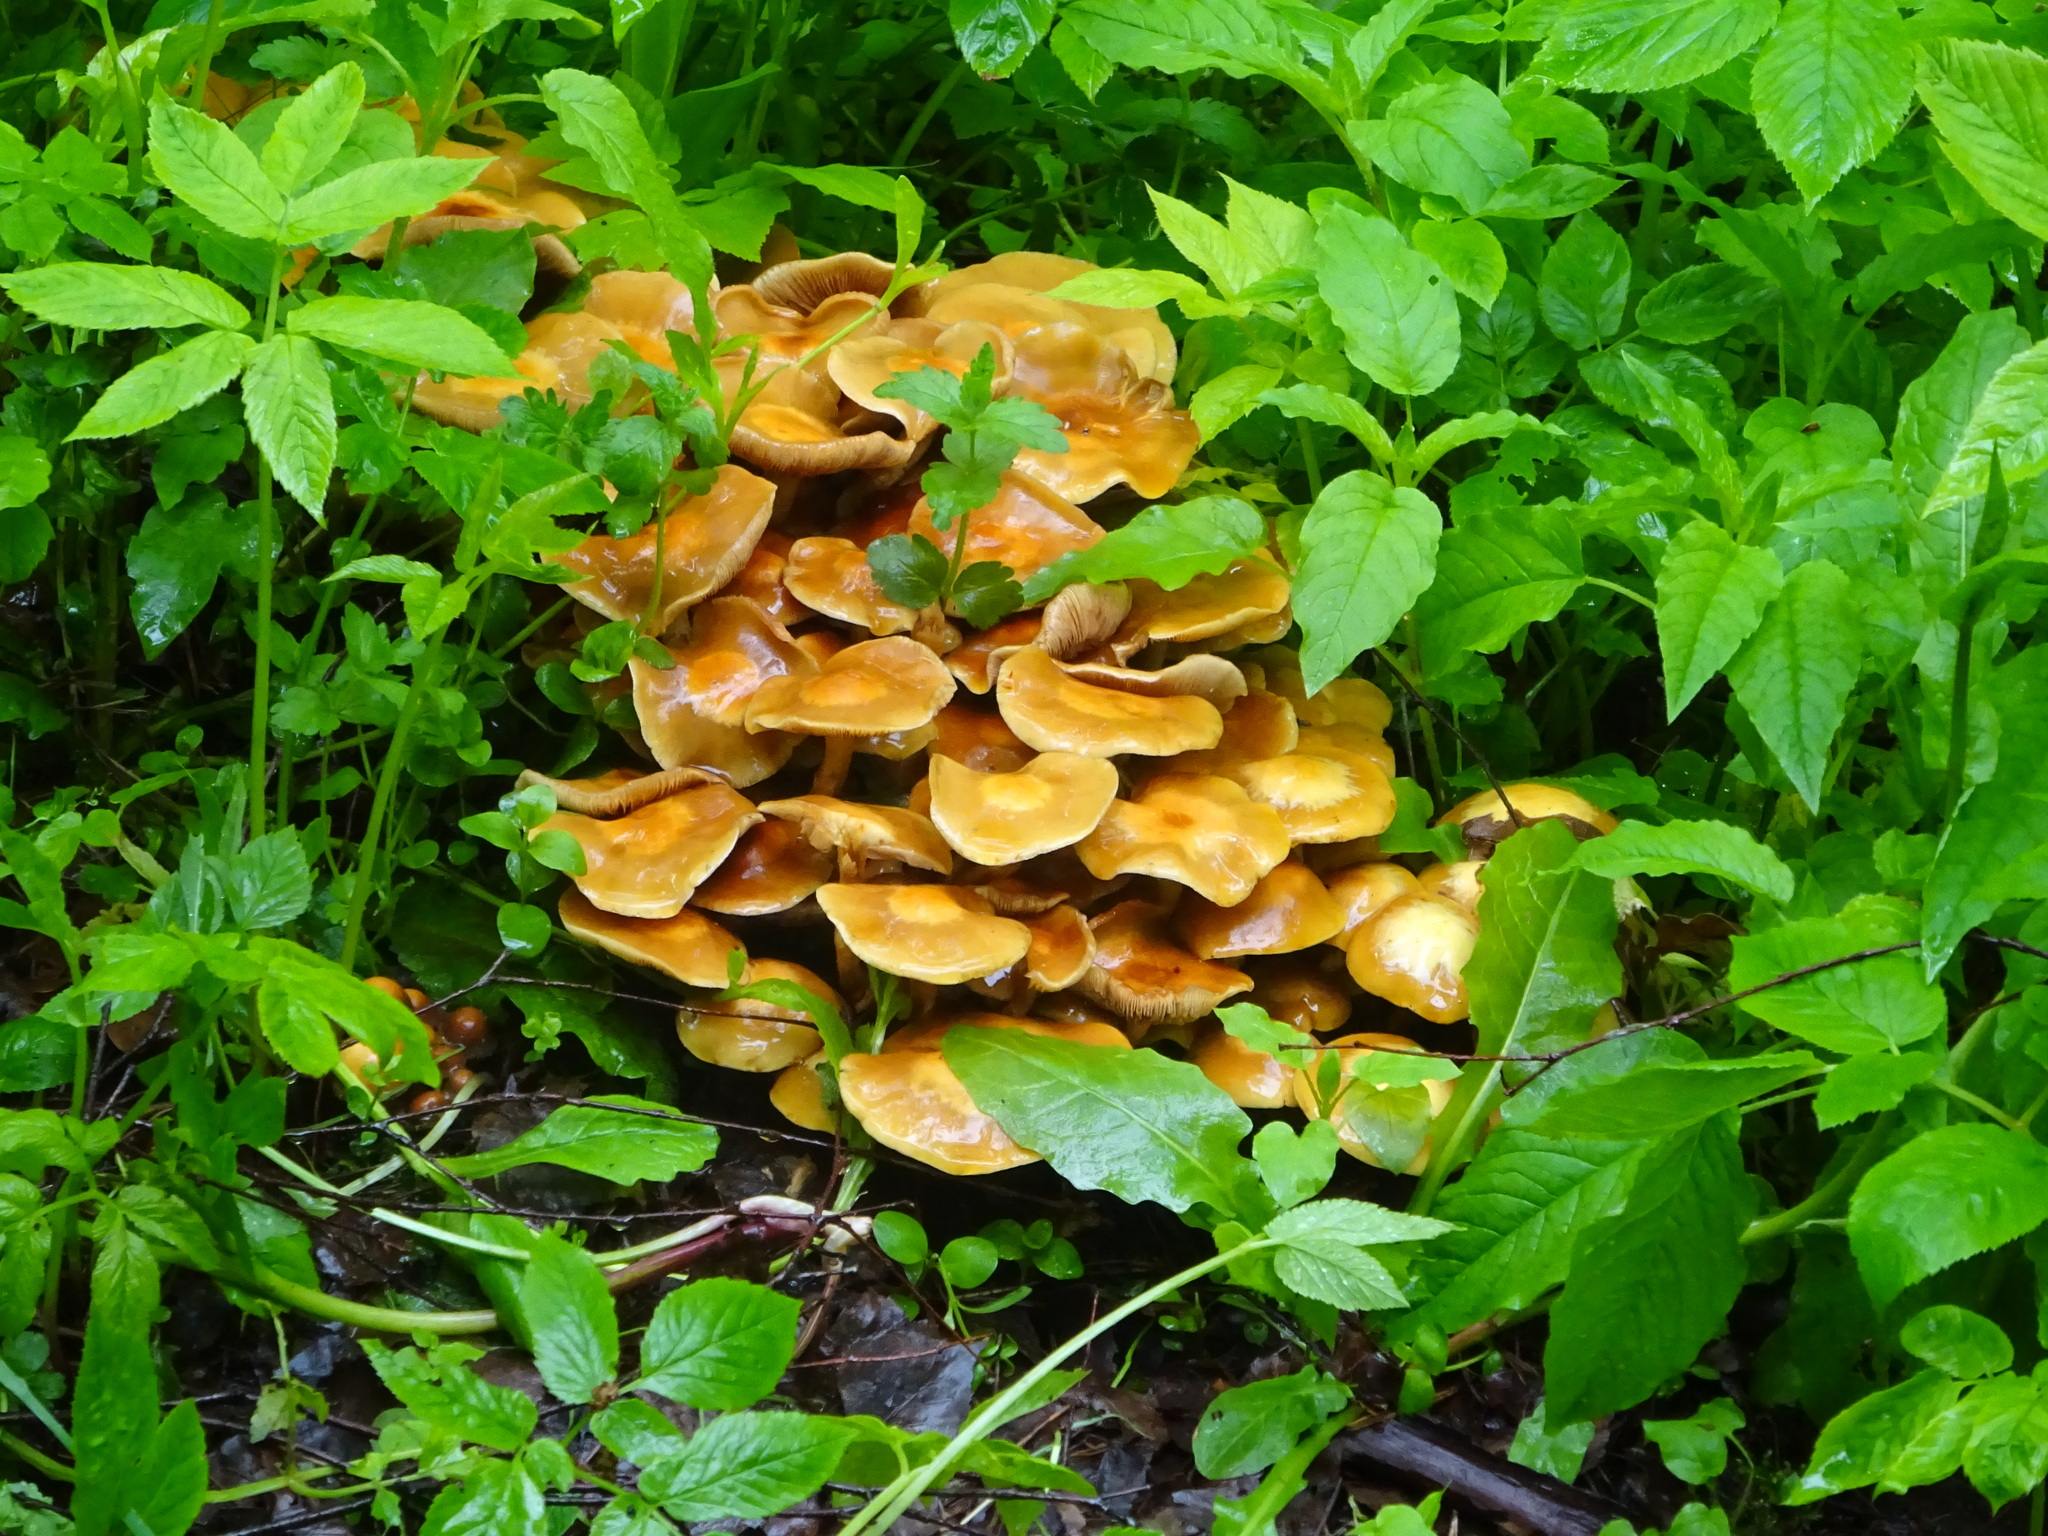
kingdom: Fungi
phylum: Basidiomycota
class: Agaricomycetes
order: Agaricales
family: Strophariaceae
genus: Kuehneromyces
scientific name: Kuehneromyces mutabilis
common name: Sheathed woodtuft
